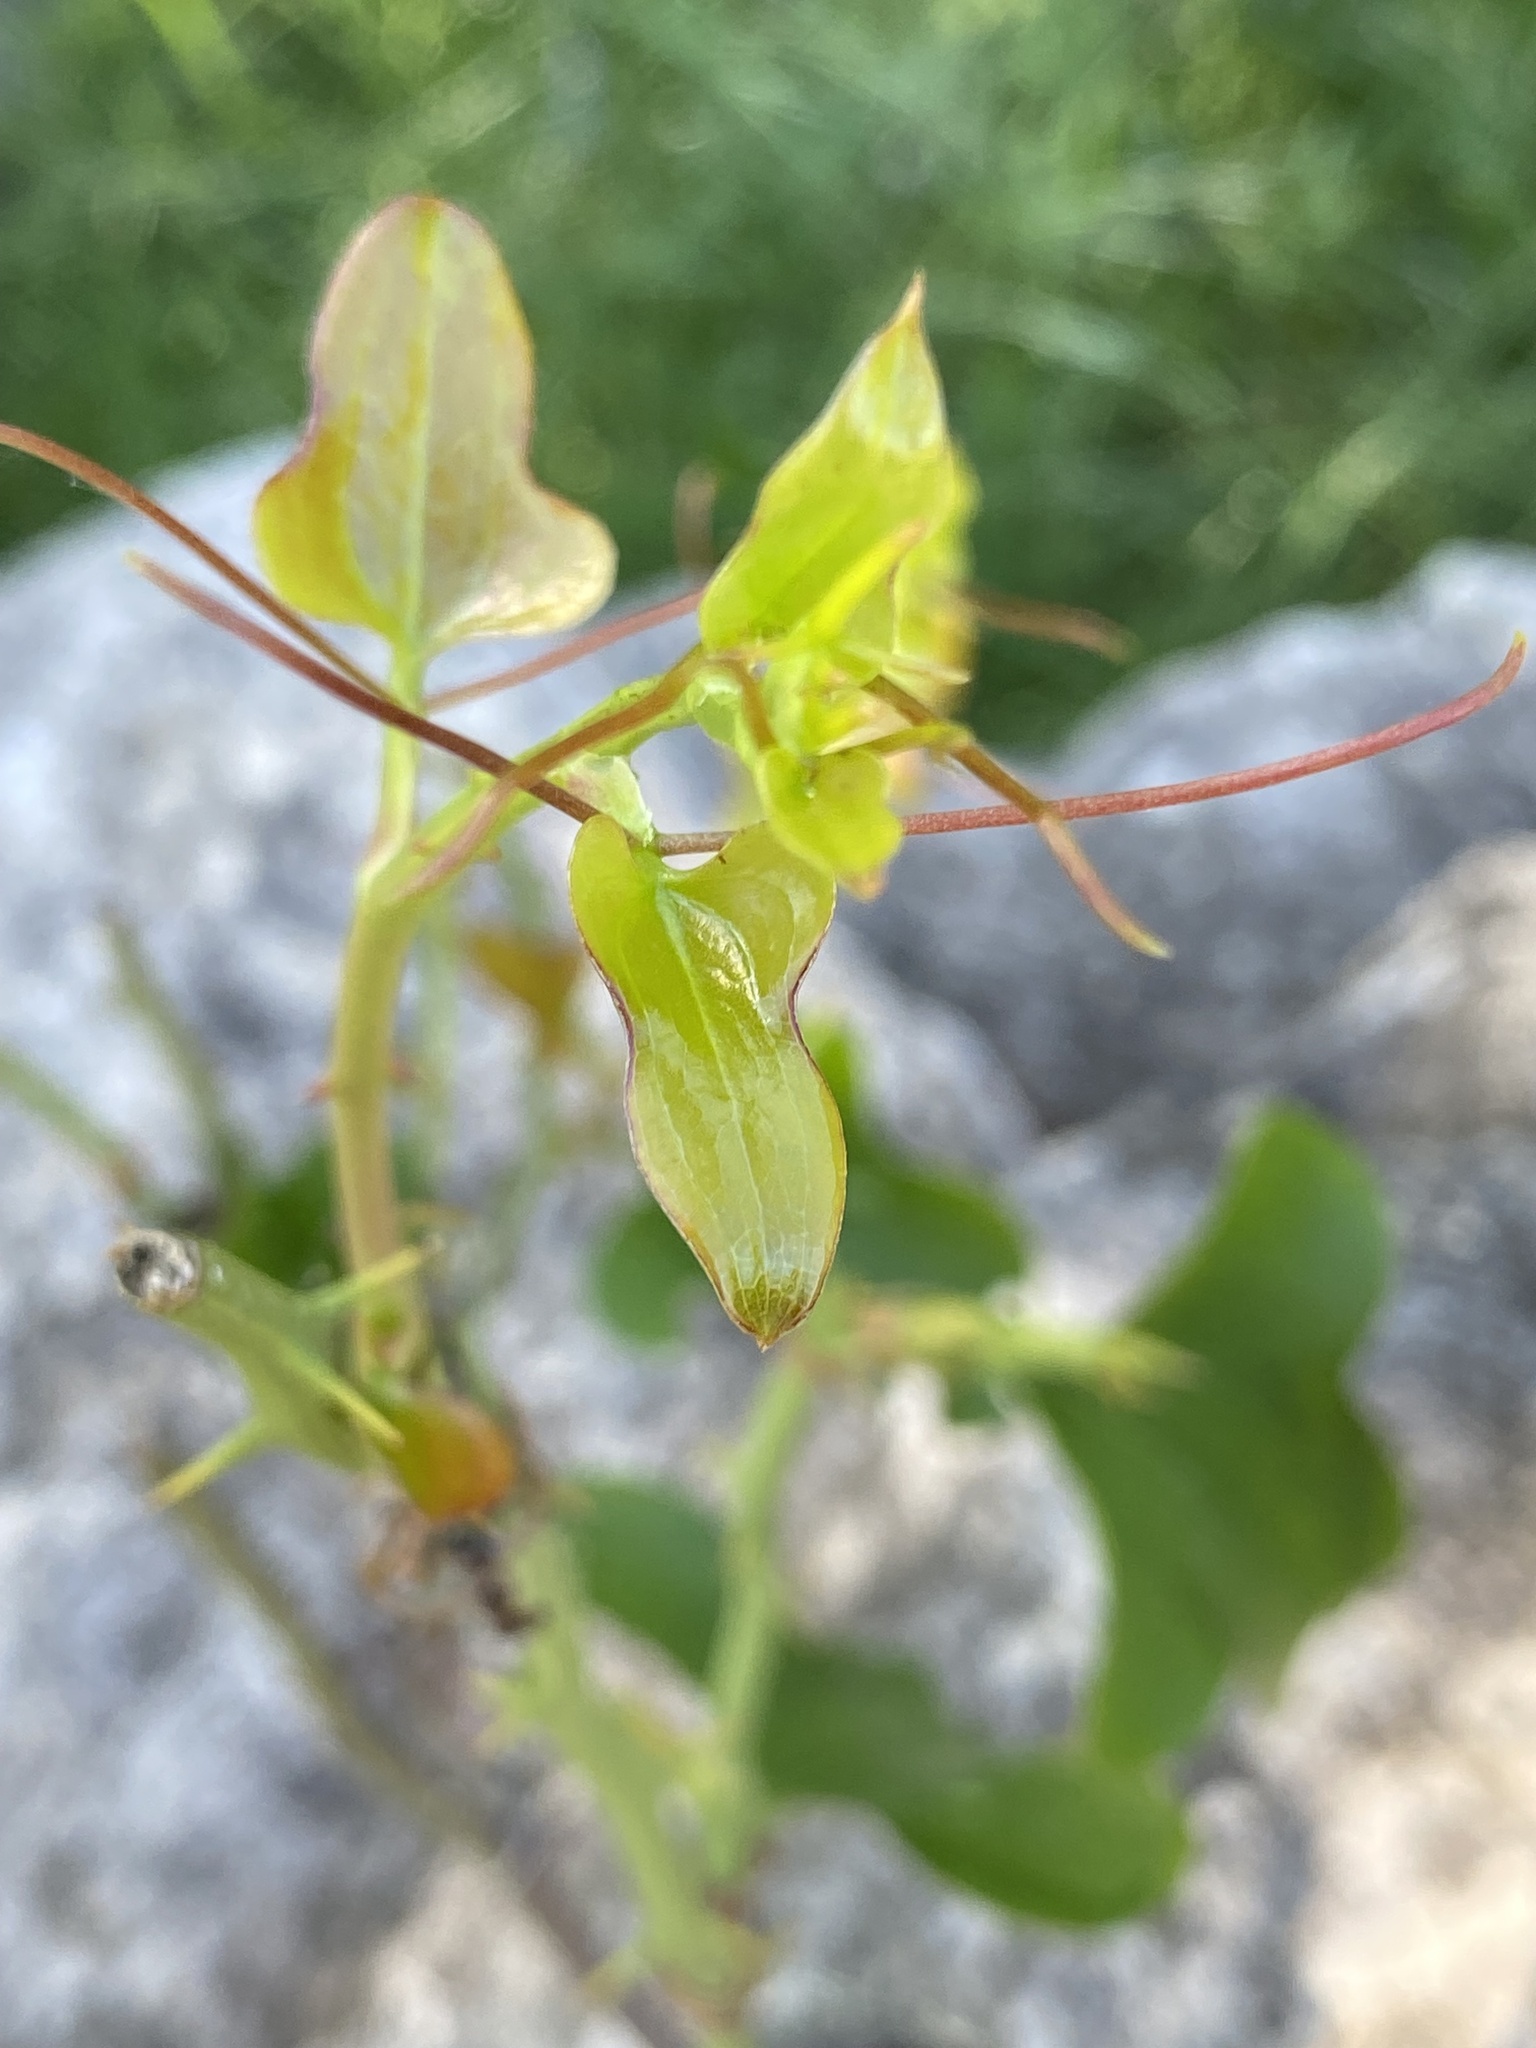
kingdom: Plantae
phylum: Tracheophyta
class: Liliopsida
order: Liliales
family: Smilacaceae
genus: Smilax
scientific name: Smilax bona-nox
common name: Catbrier
